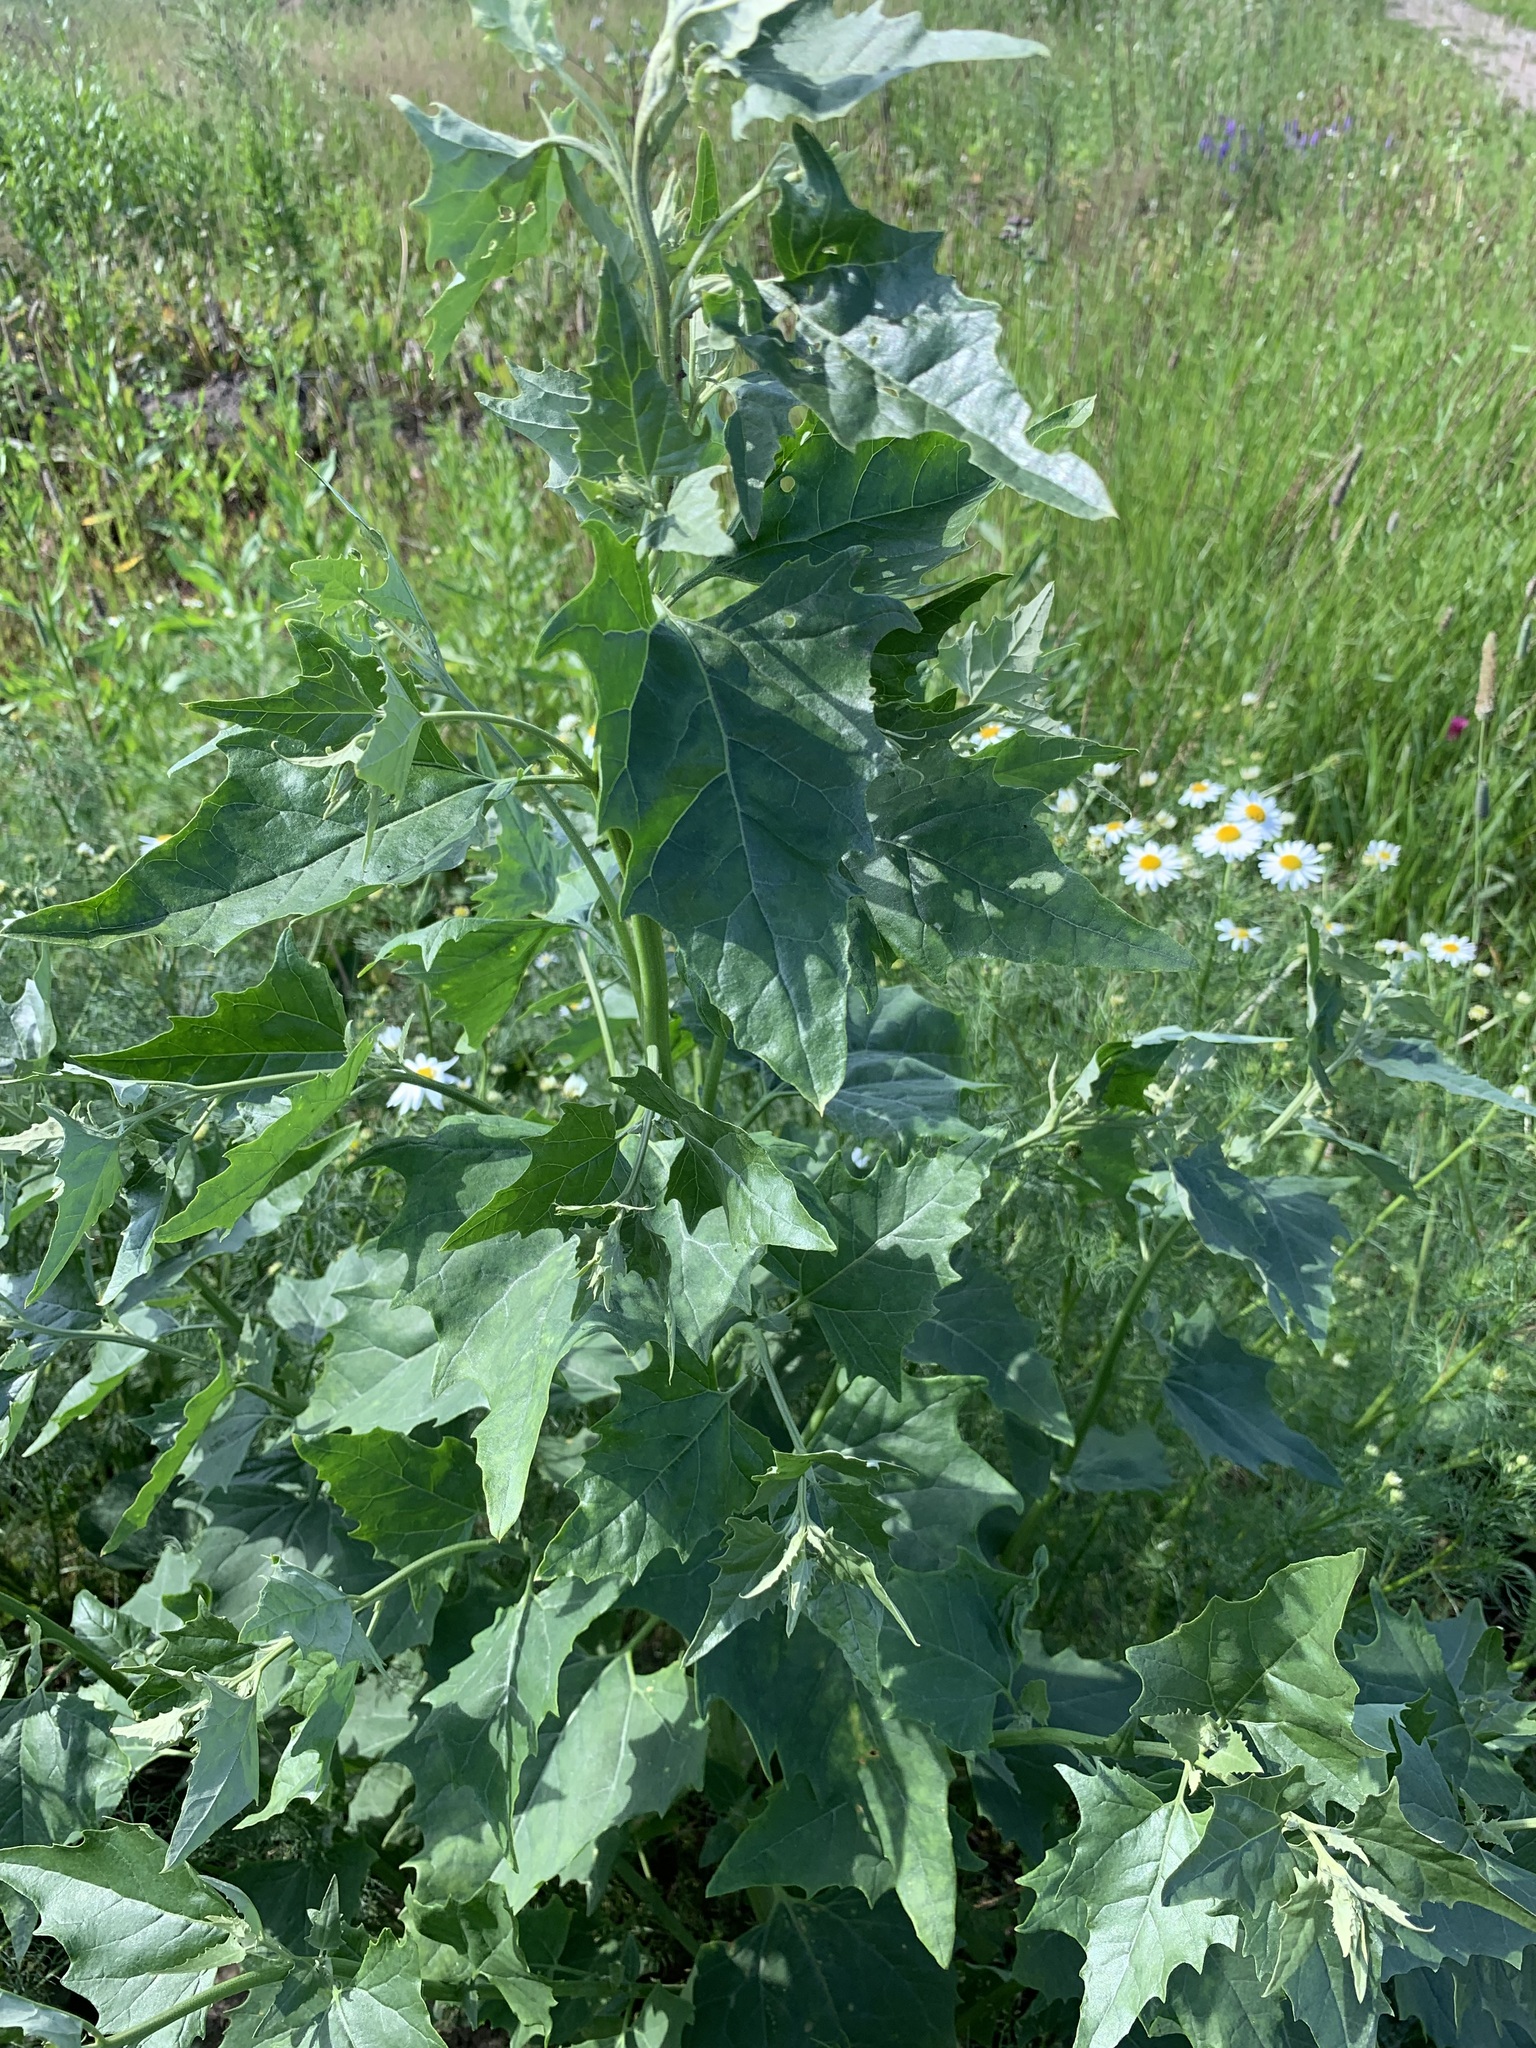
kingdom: Plantae
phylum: Tracheophyta
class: Magnoliopsida
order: Caryophyllales
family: Amaranthaceae
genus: Atriplex
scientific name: Atriplex sagittata
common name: Purple orache
